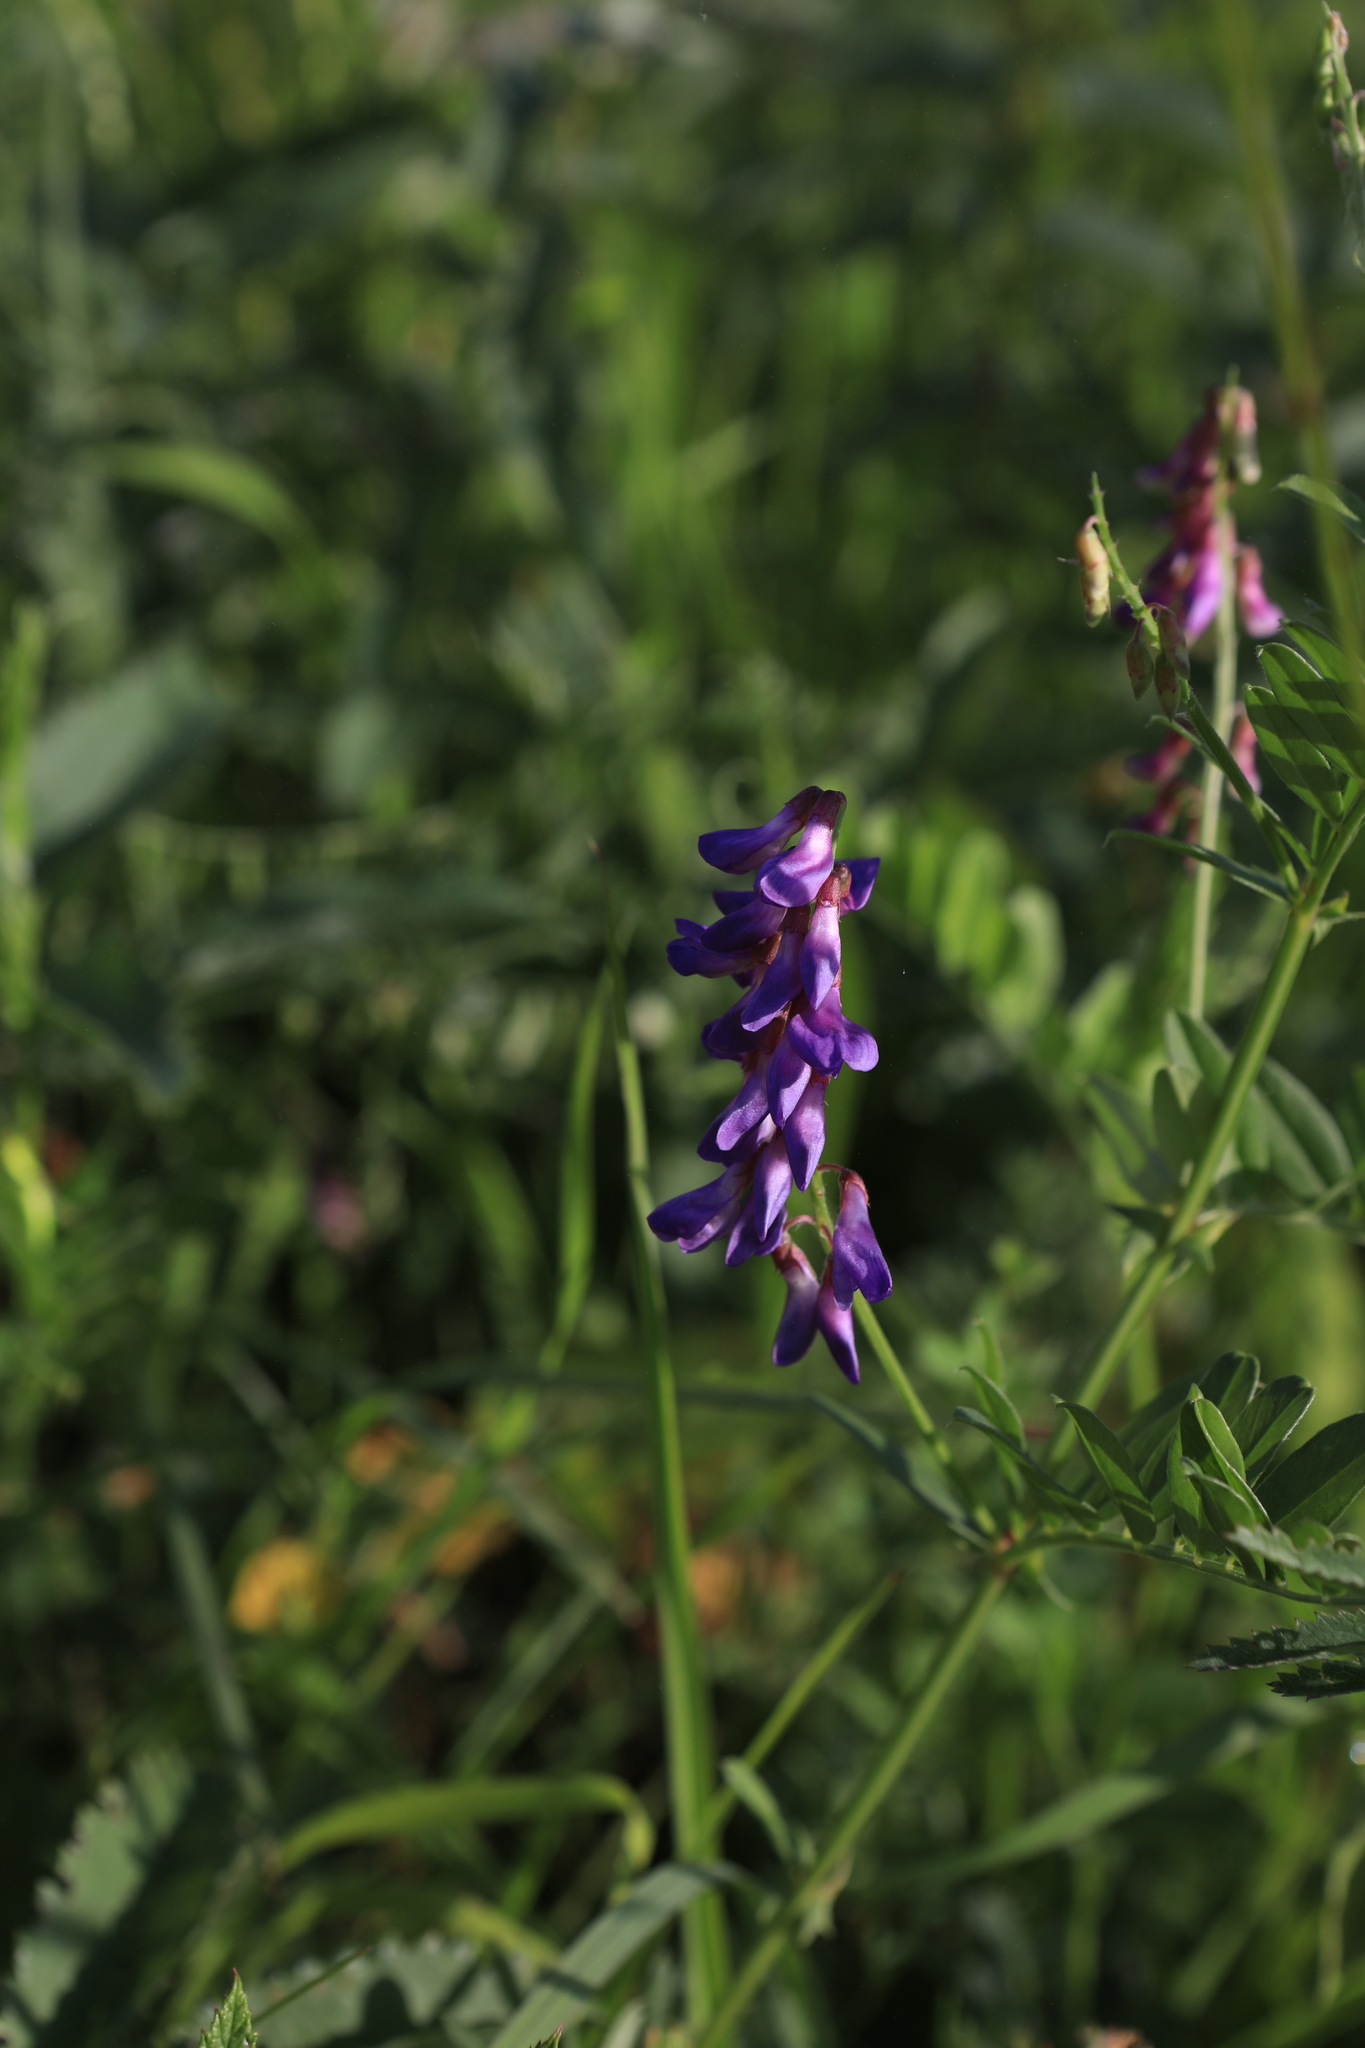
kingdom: Plantae
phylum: Tracheophyta
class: Magnoliopsida
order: Fabales
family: Fabaceae
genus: Vicia
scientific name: Vicia amoena
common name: Cheder ebs
